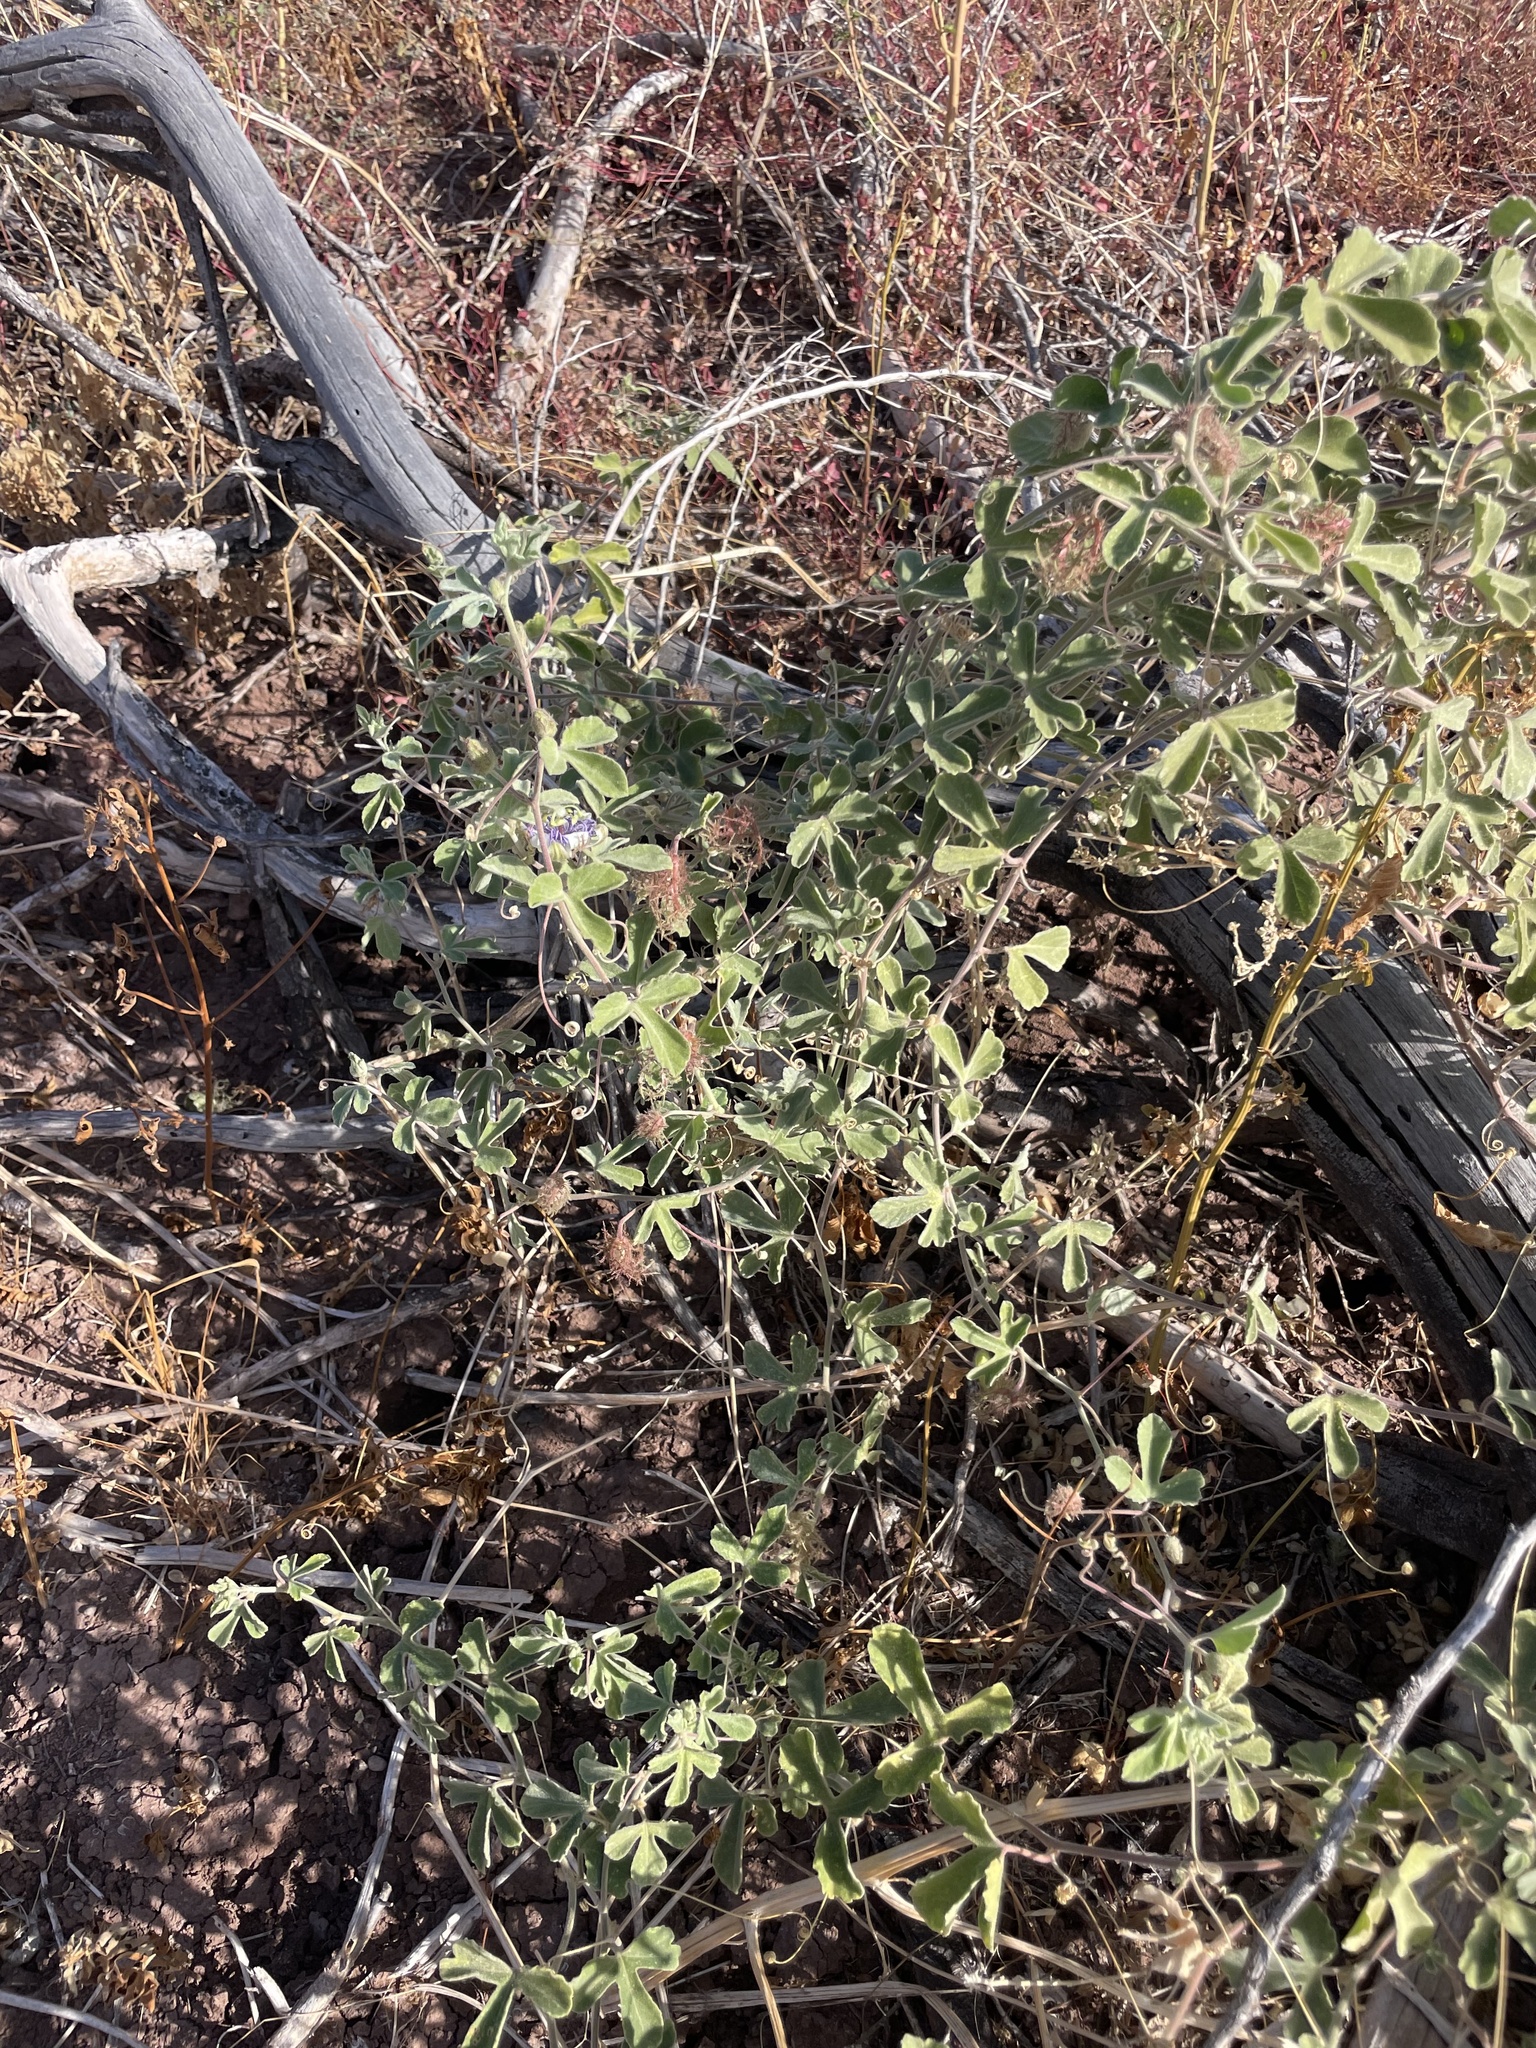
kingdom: Plantae
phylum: Tracheophyta
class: Magnoliopsida
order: Malpighiales
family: Passifloraceae
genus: Passiflora
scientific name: Passiflora arida
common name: Desert passionflower
